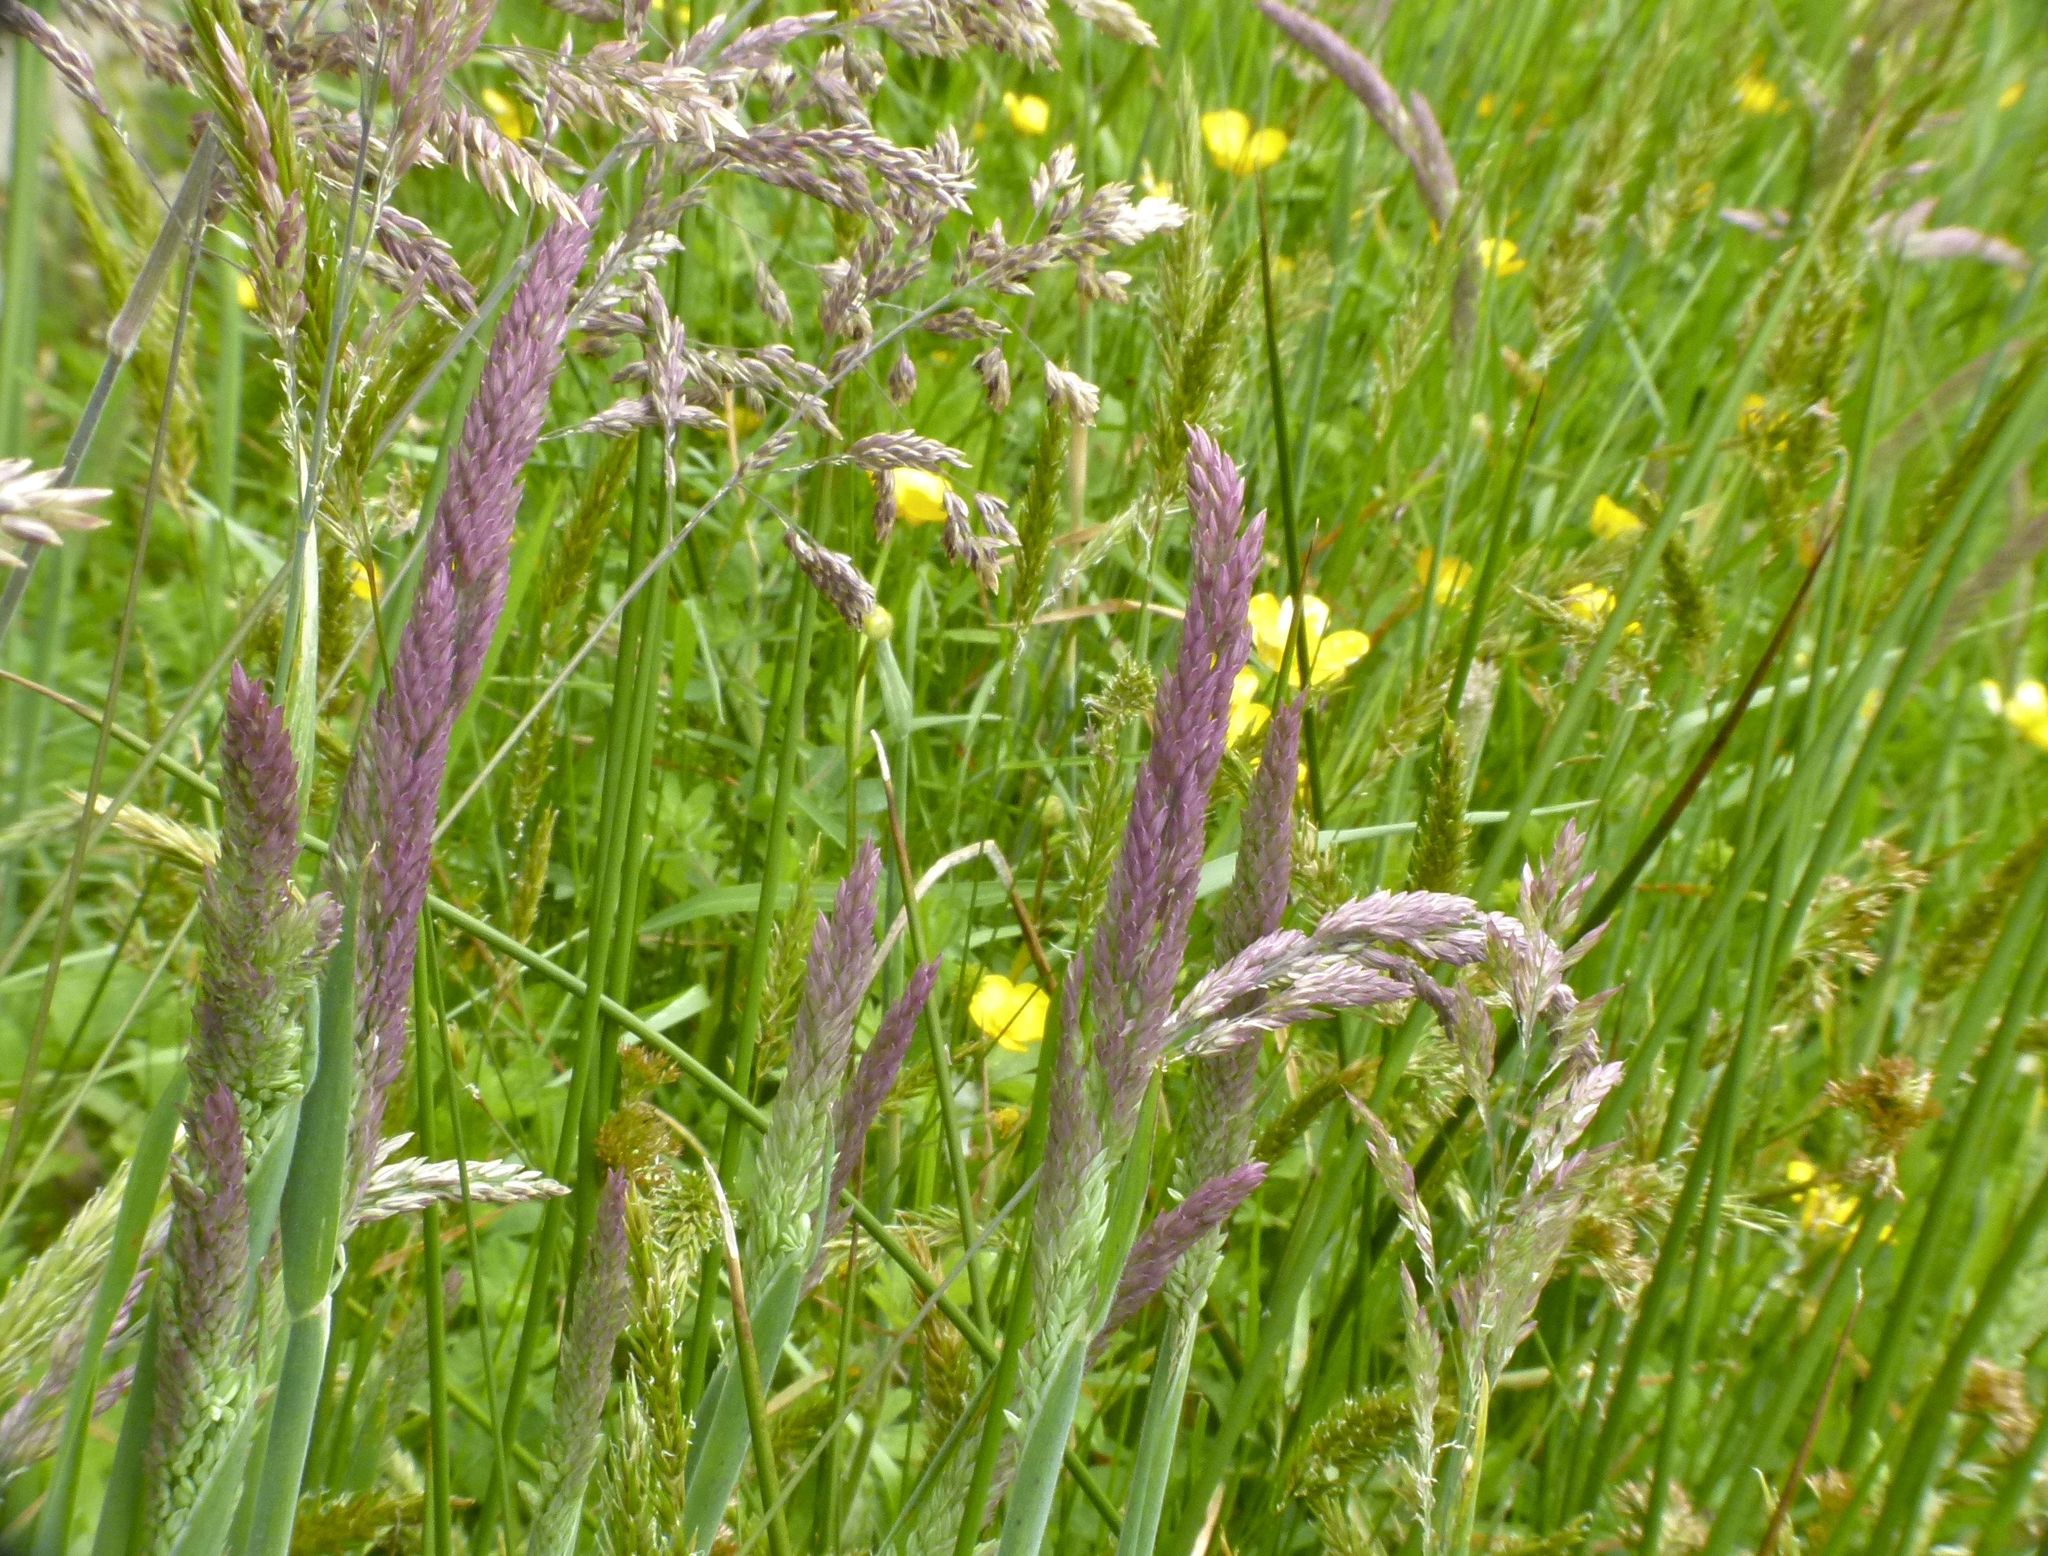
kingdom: Plantae
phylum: Tracheophyta
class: Liliopsida
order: Poales
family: Poaceae
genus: Holcus
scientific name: Holcus lanatus
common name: Yorkshire-fog
